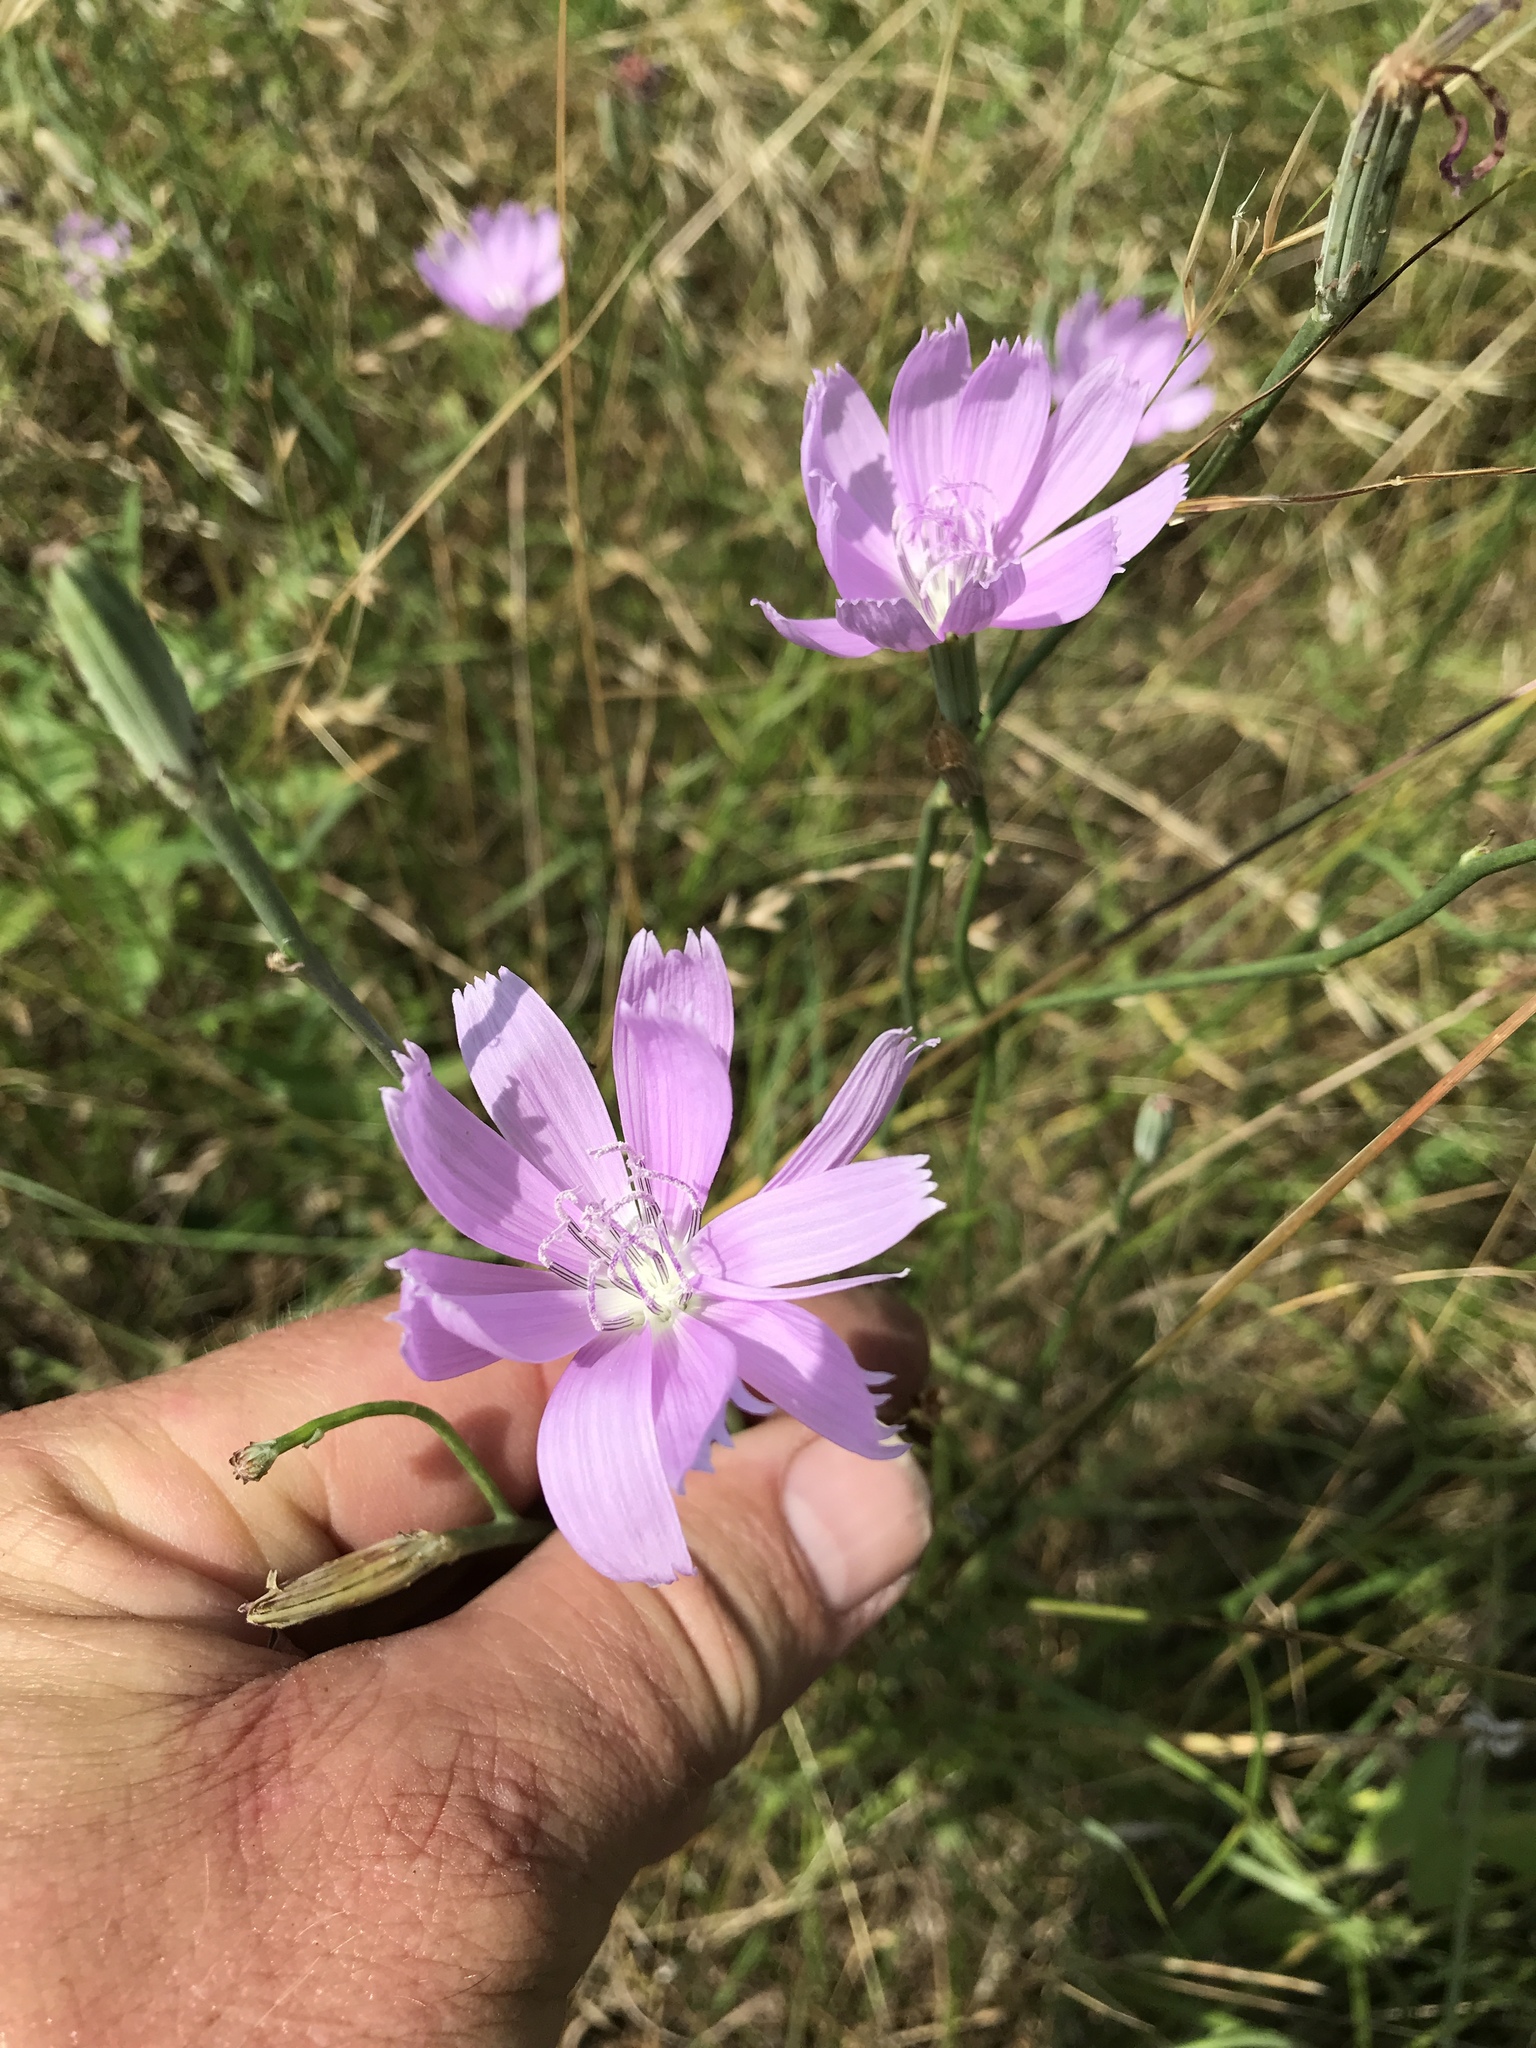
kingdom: Plantae
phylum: Tracheophyta
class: Magnoliopsida
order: Asterales
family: Asteraceae
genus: Lygodesmia
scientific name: Lygodesmia texana
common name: Texas skeleton-plant
